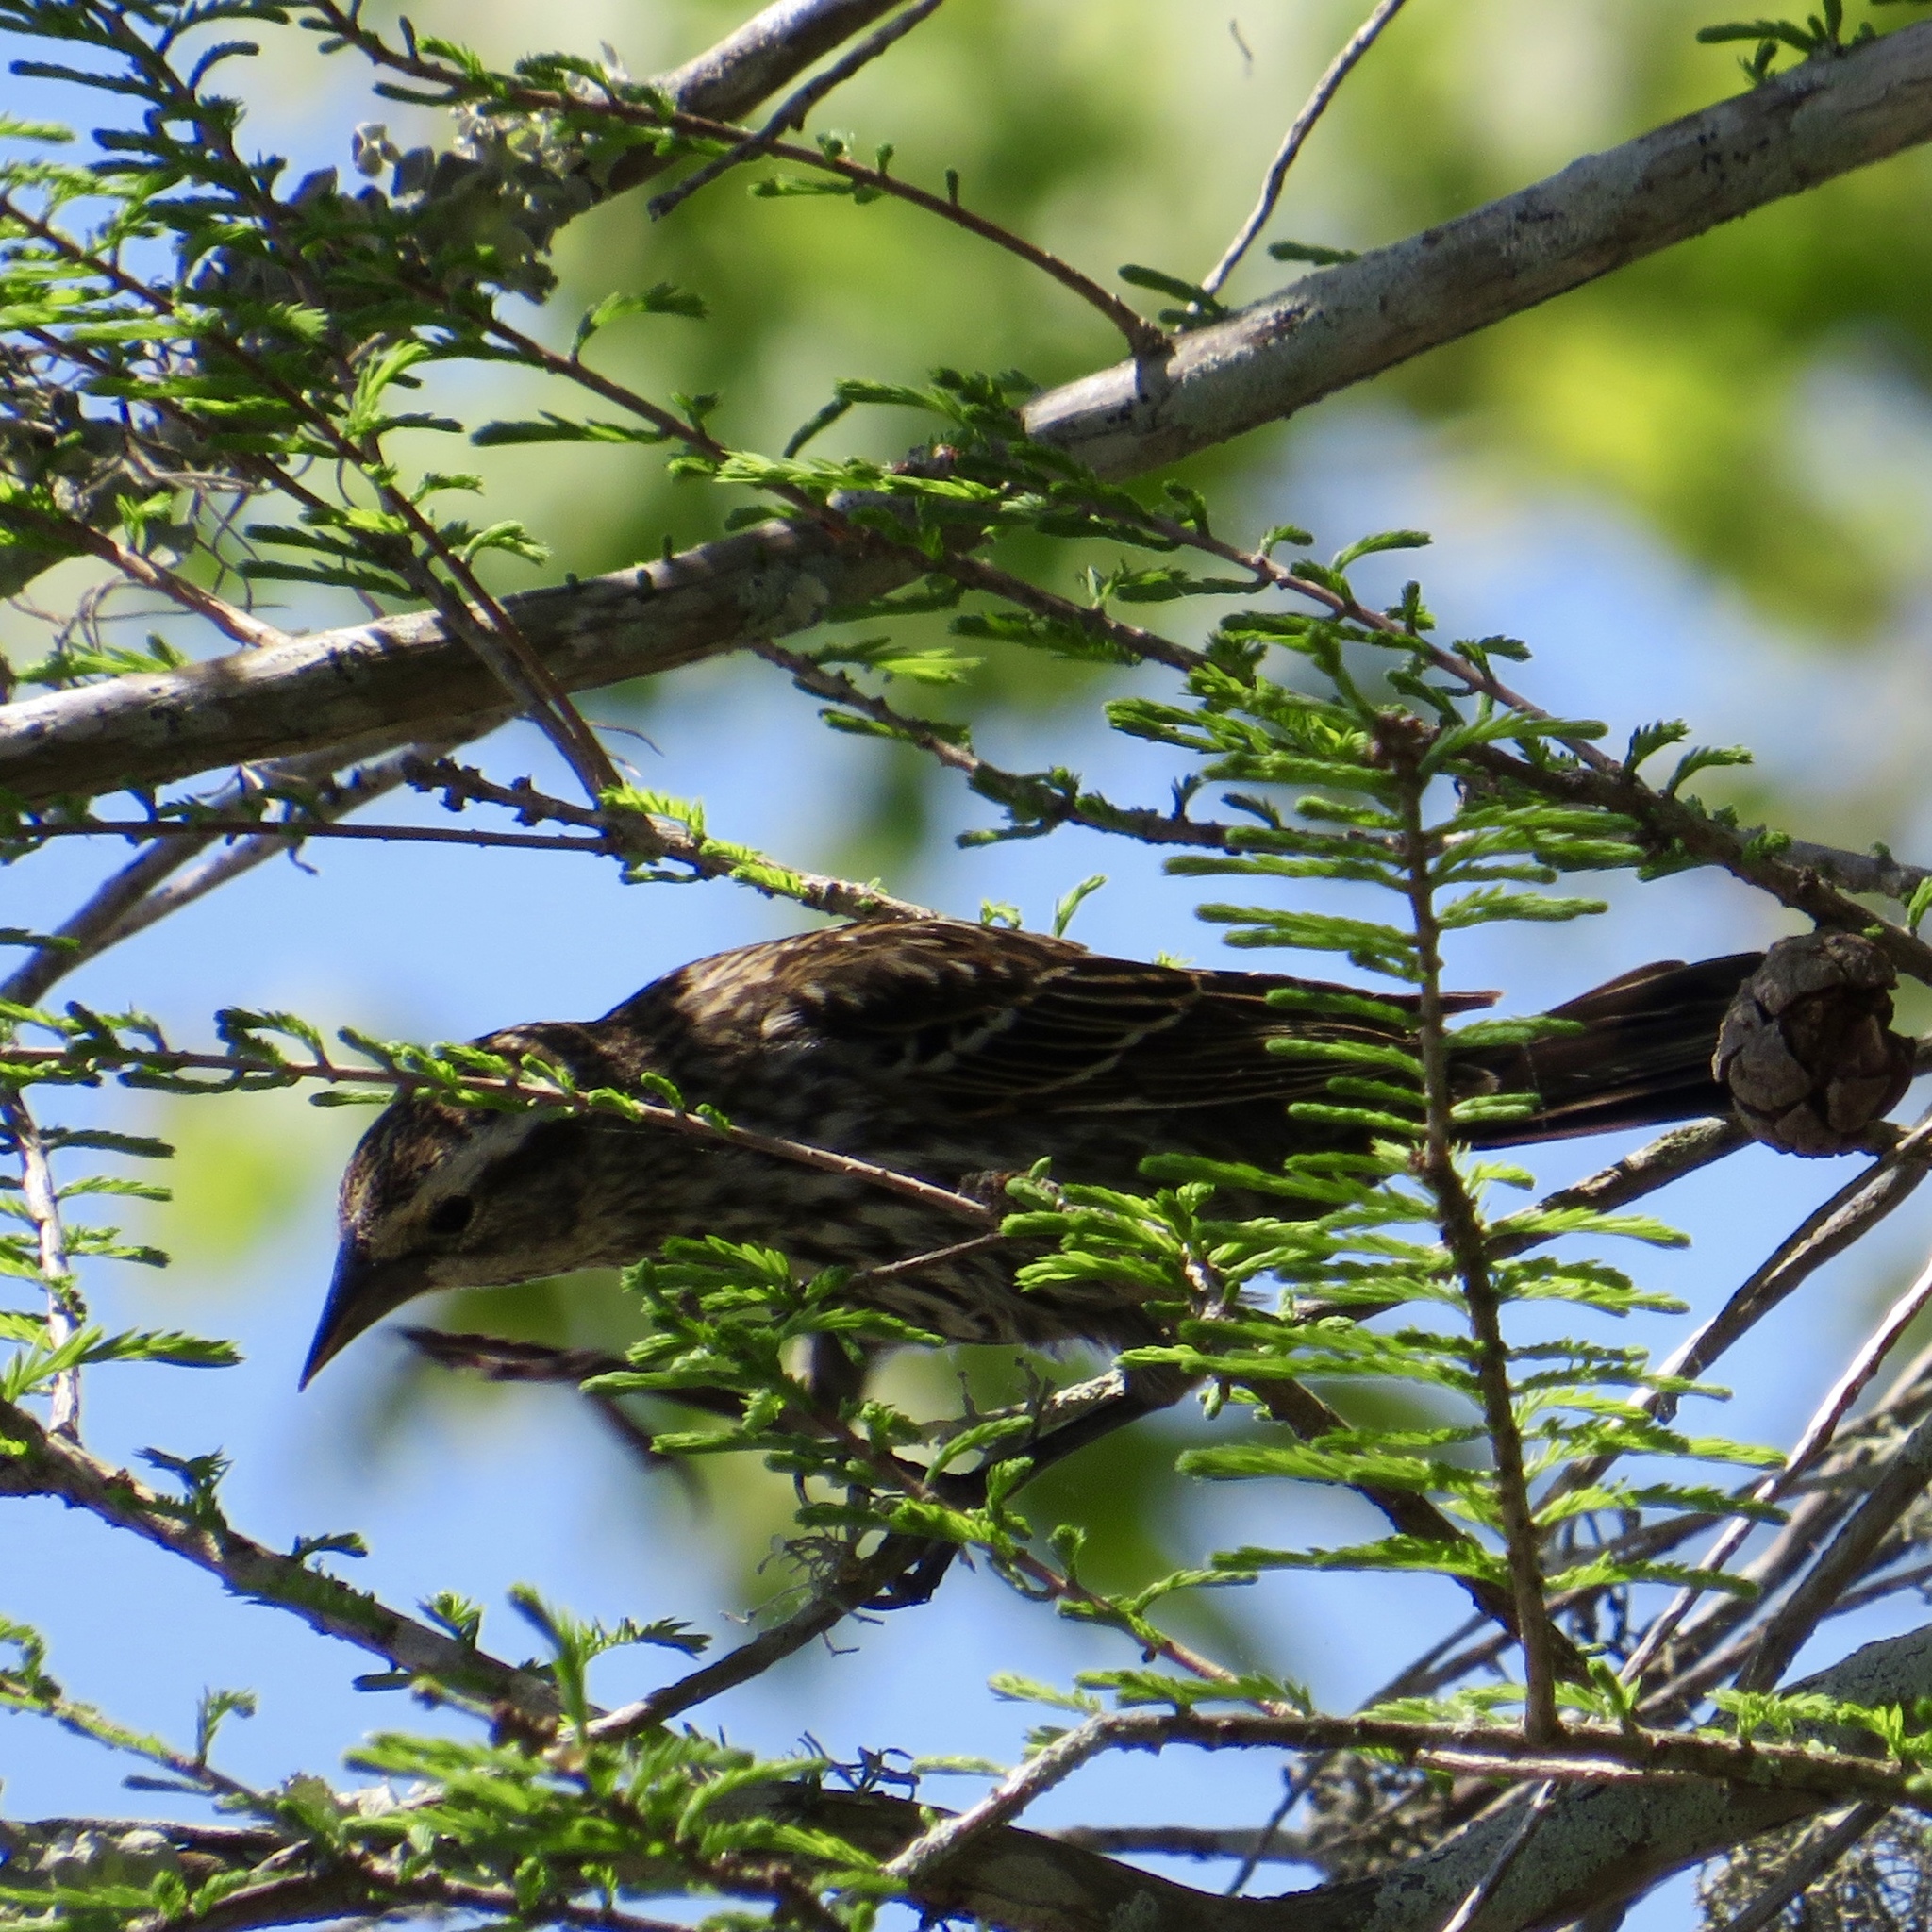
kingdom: Animalia
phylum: Chordata
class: Aves
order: Passeriformes
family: Icteridae
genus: Agelaius
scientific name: Agelaius phoeniceus
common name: Red-winged blackbird
